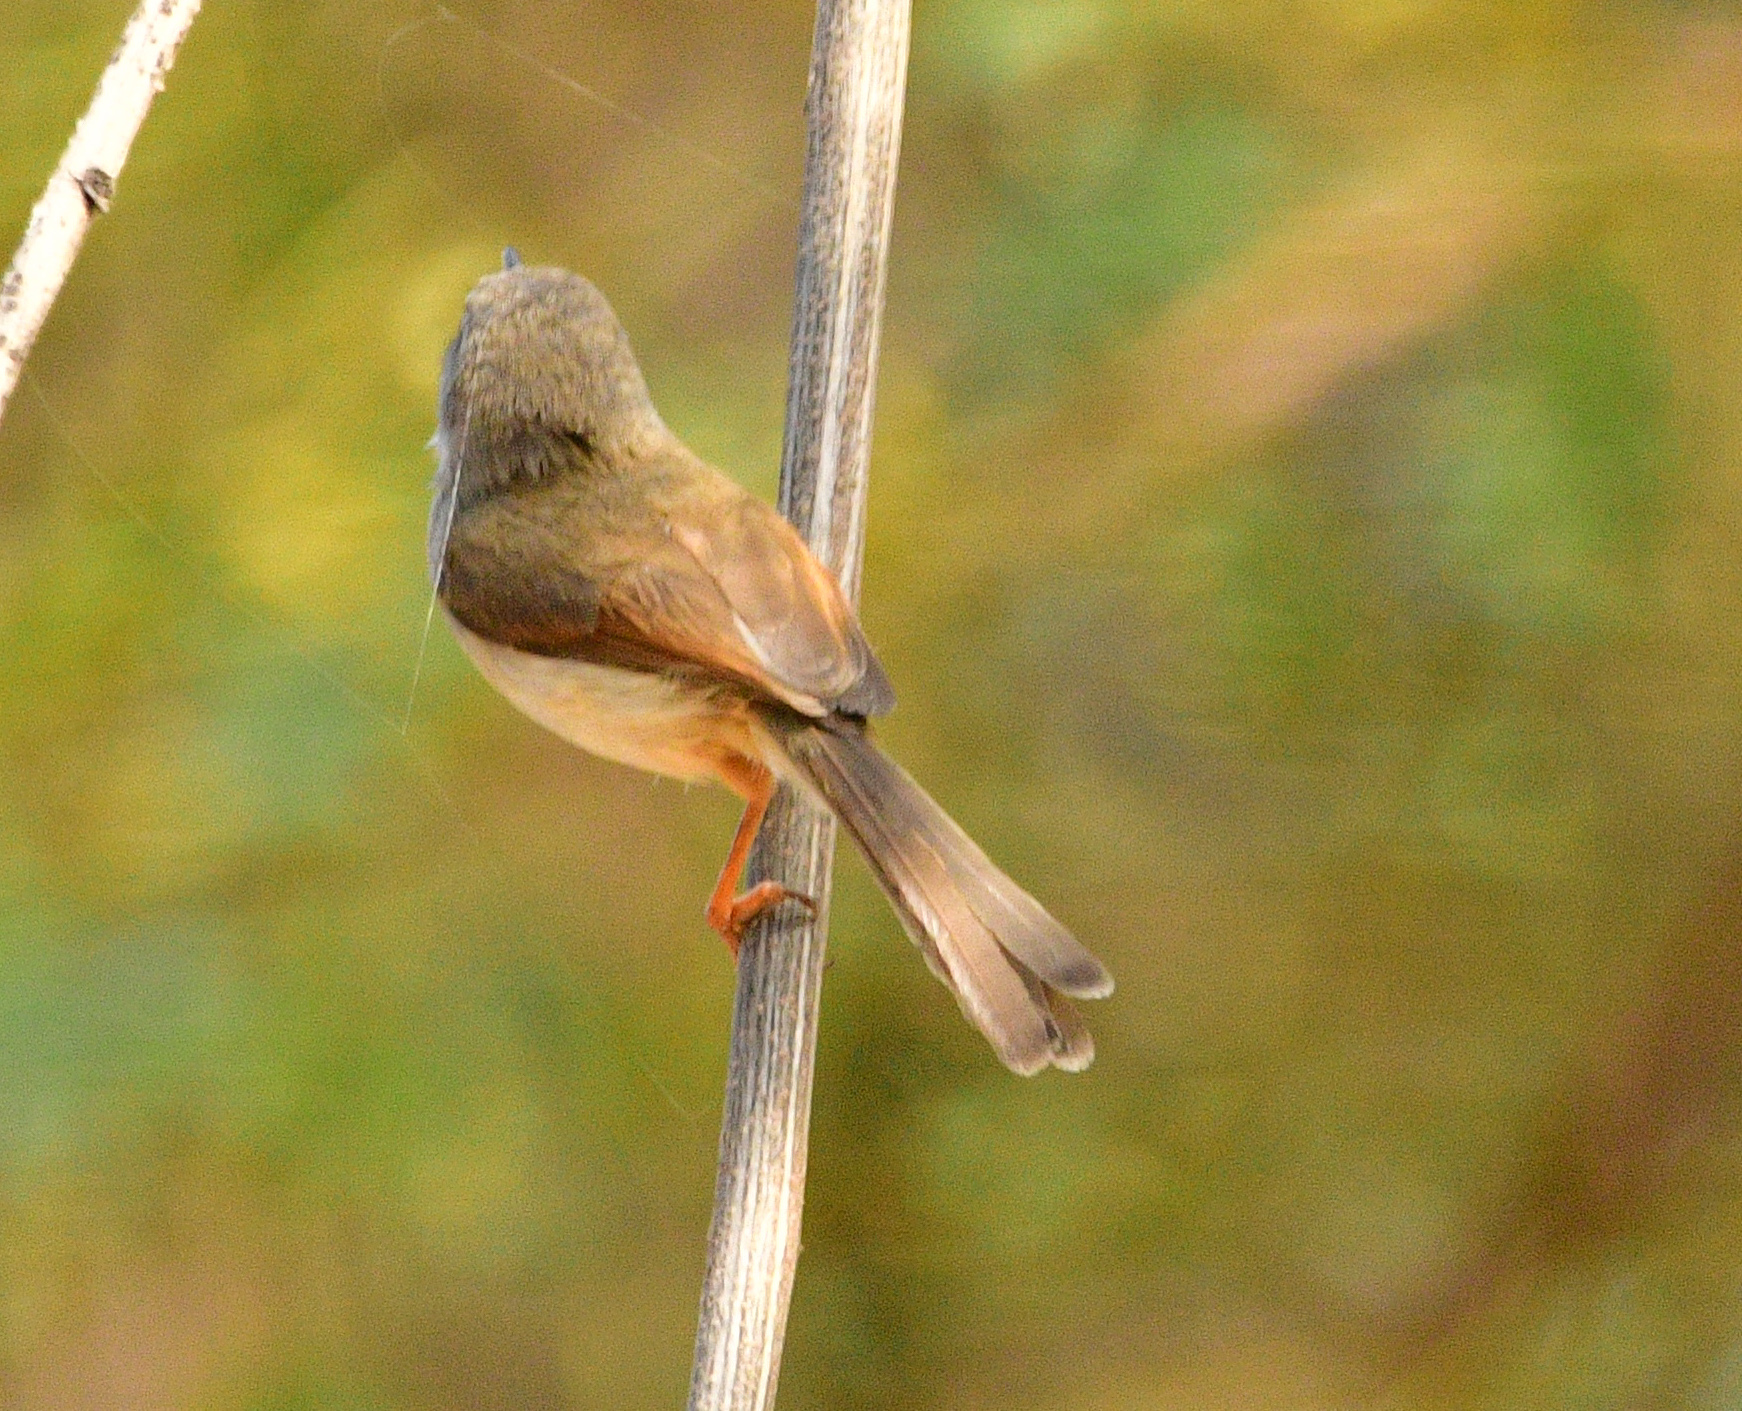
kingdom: Animalia
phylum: Chordata
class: Aves
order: Passeriformes
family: Cisticolidae
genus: Prinia
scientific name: Prinia hodgsonii
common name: Grey-breasted prinia
